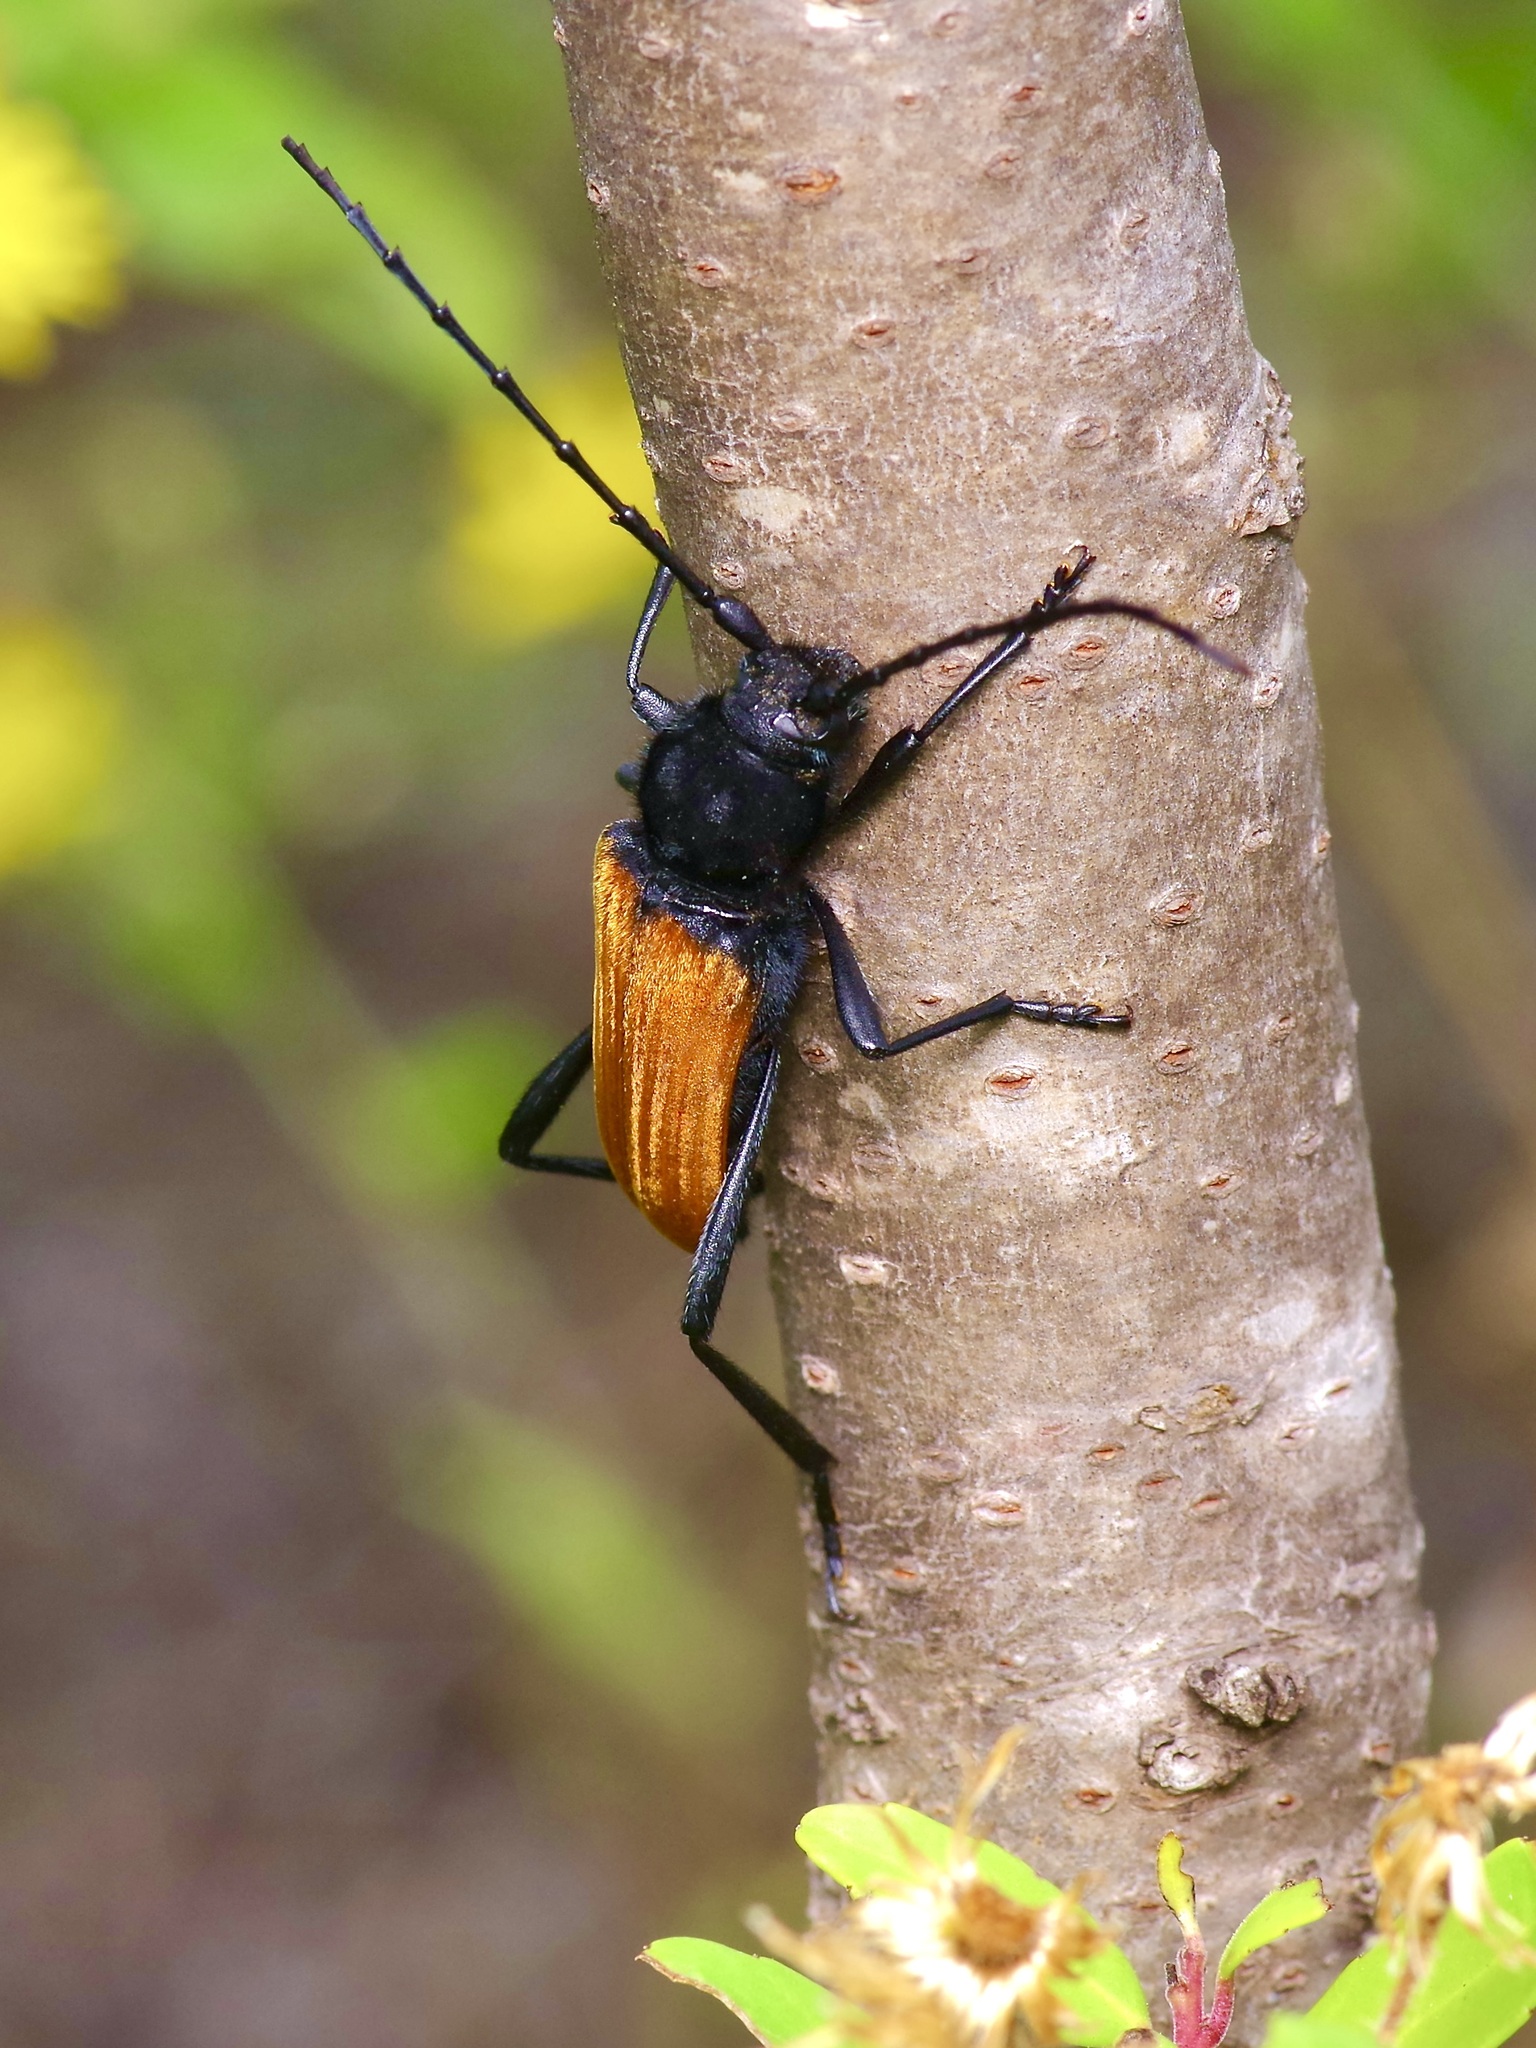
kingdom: Animalia
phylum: Arthropoda
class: Insecta
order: Coleoptera
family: Cerambycidae
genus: Tragidion
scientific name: Tragidion coquus
